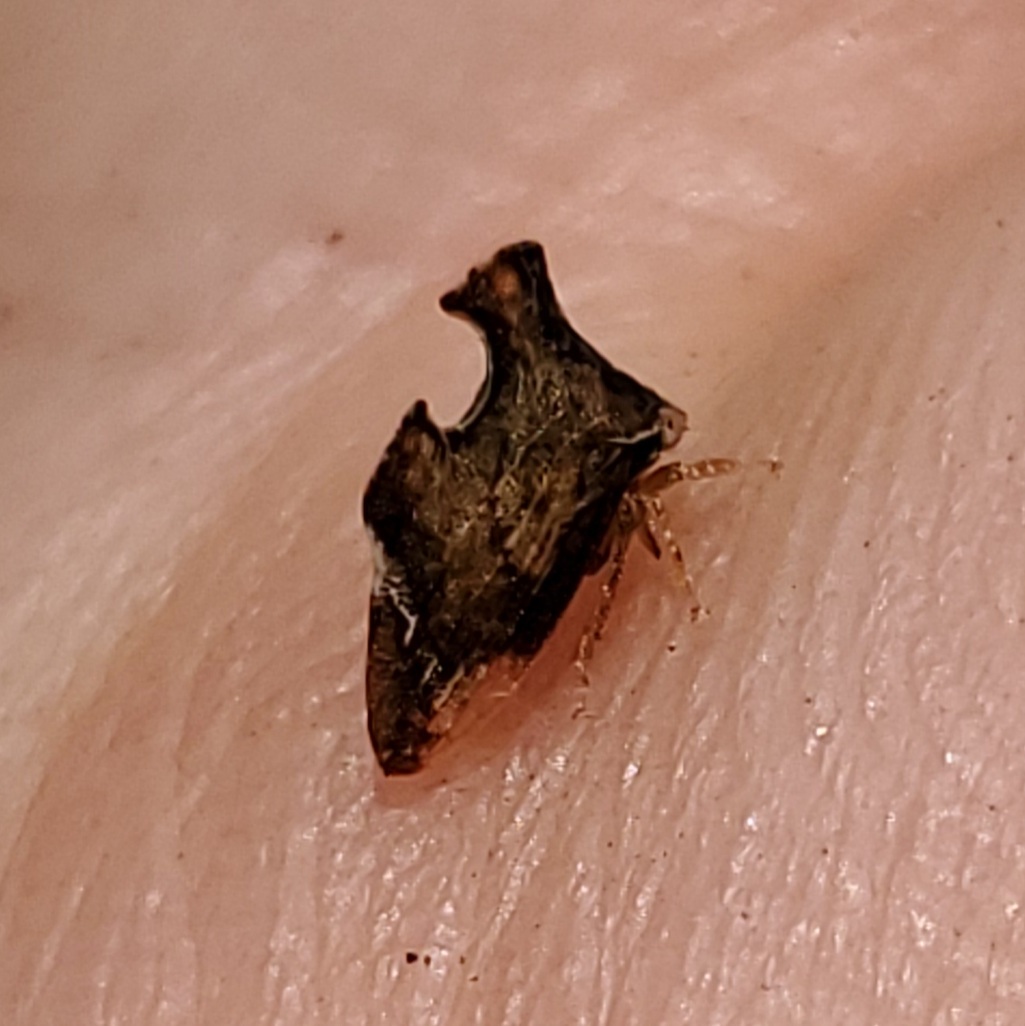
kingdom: Animalia
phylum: Arthropoda
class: Insecta
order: Hemiptera
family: Membracidae
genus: Entylia
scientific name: Entylia carinata
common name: Keeled treehopper
